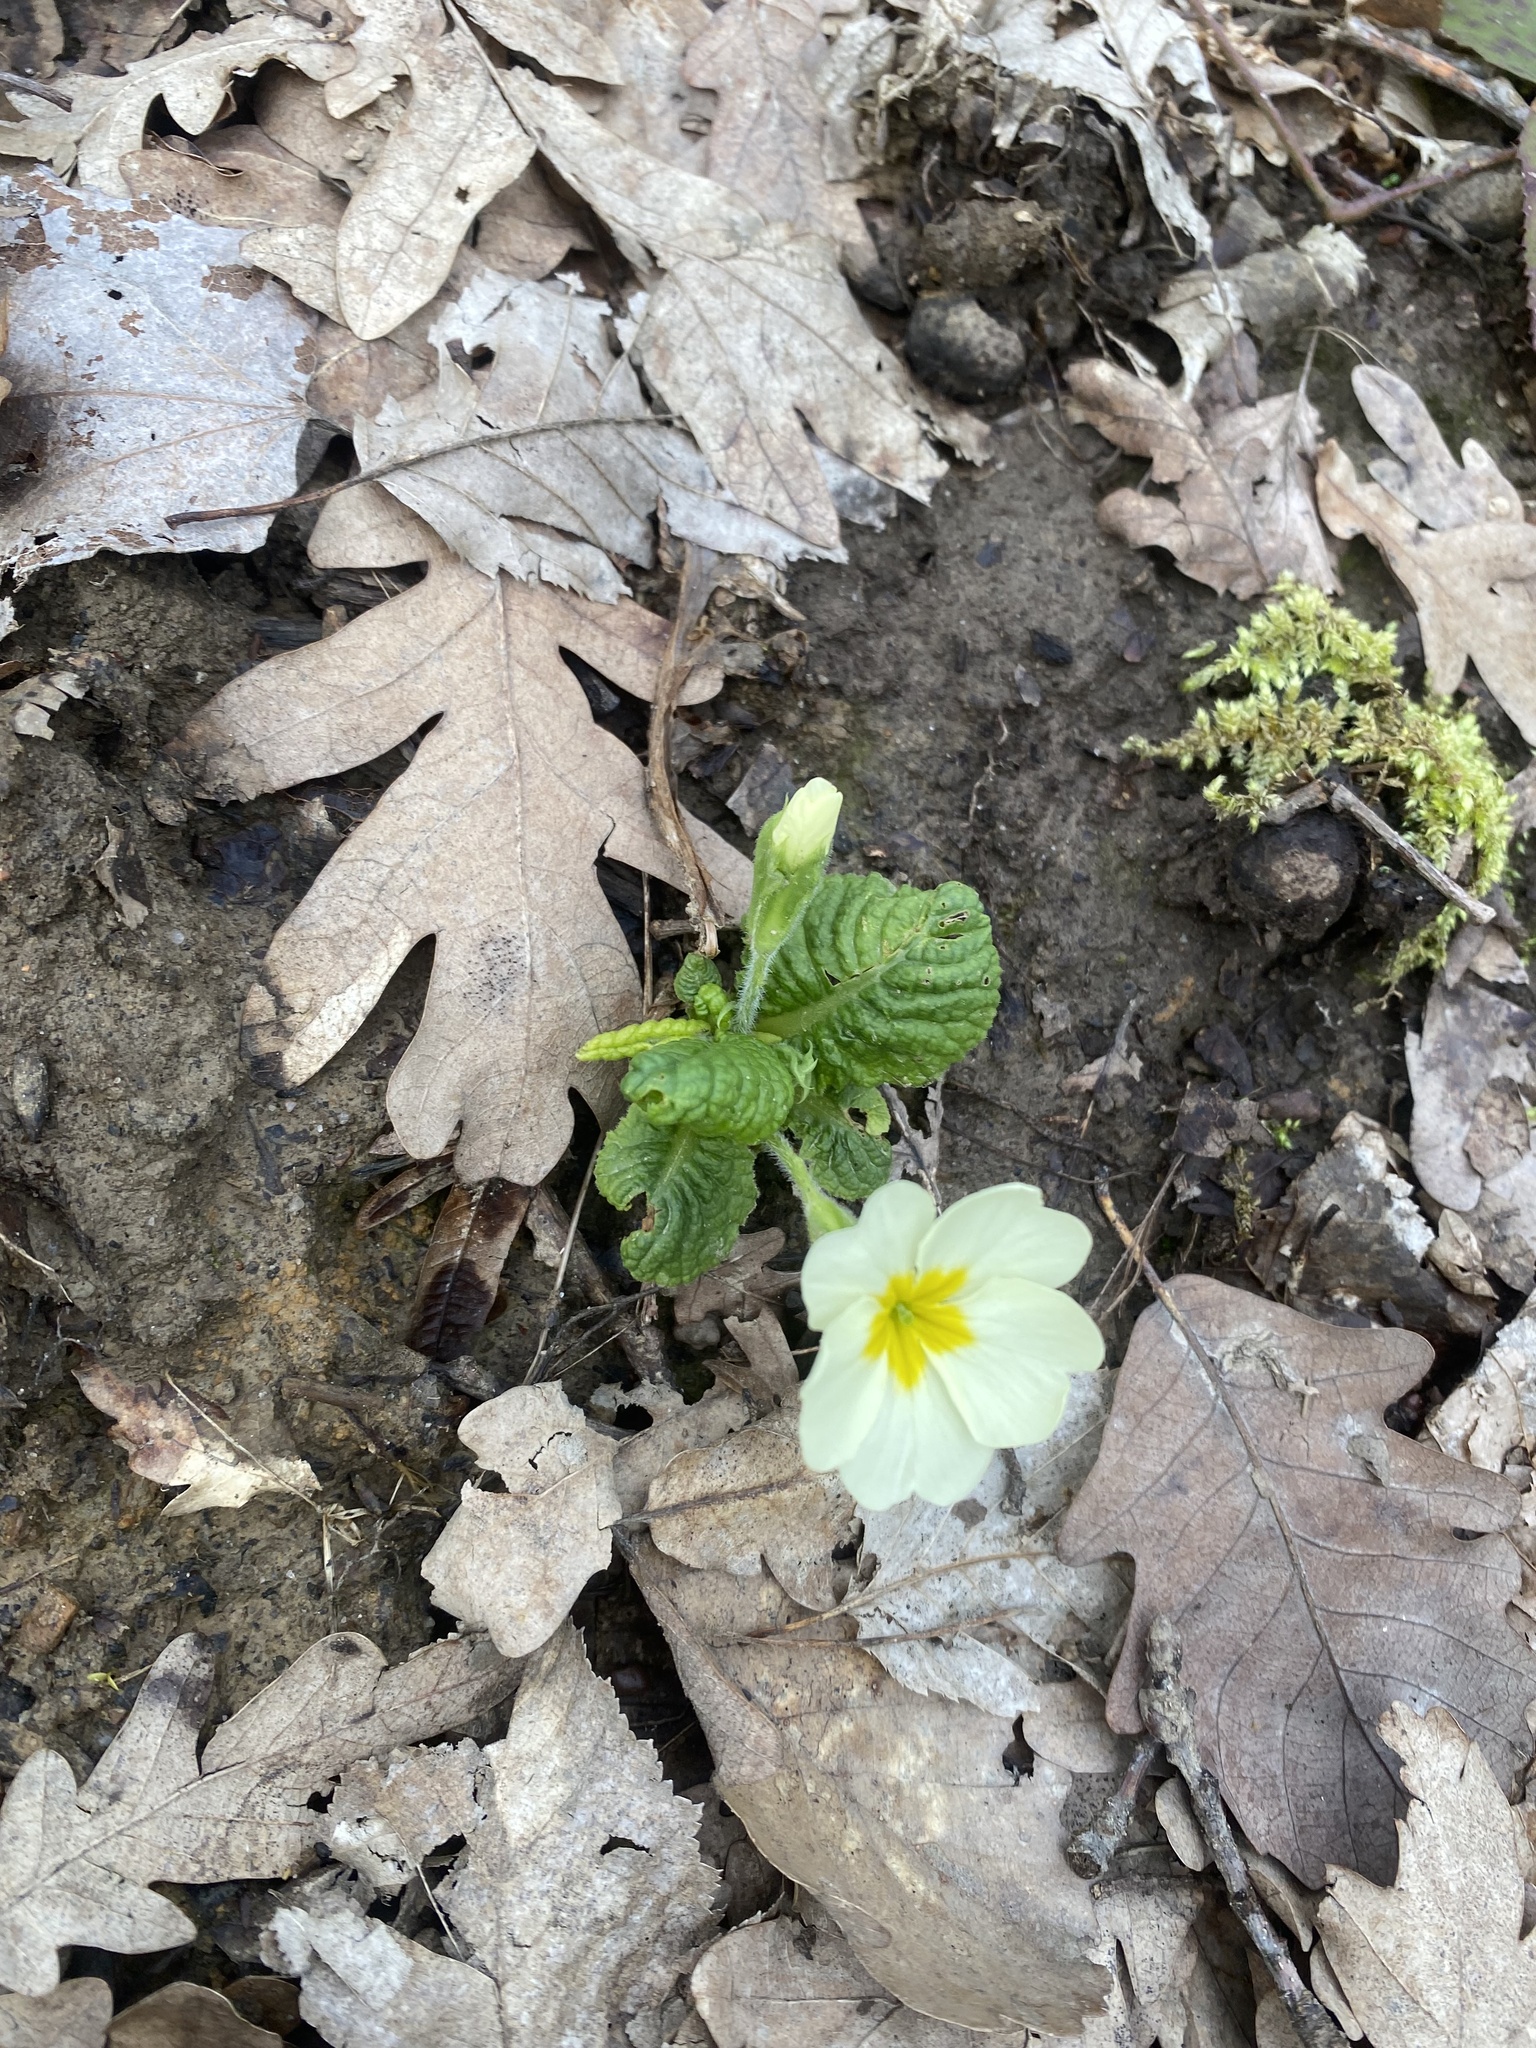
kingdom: Plantae
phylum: Tracheophyta
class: Magnoliopsida
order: Ericales
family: Primulaceae
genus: Primula
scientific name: Primula vulgaris
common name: Primrose
